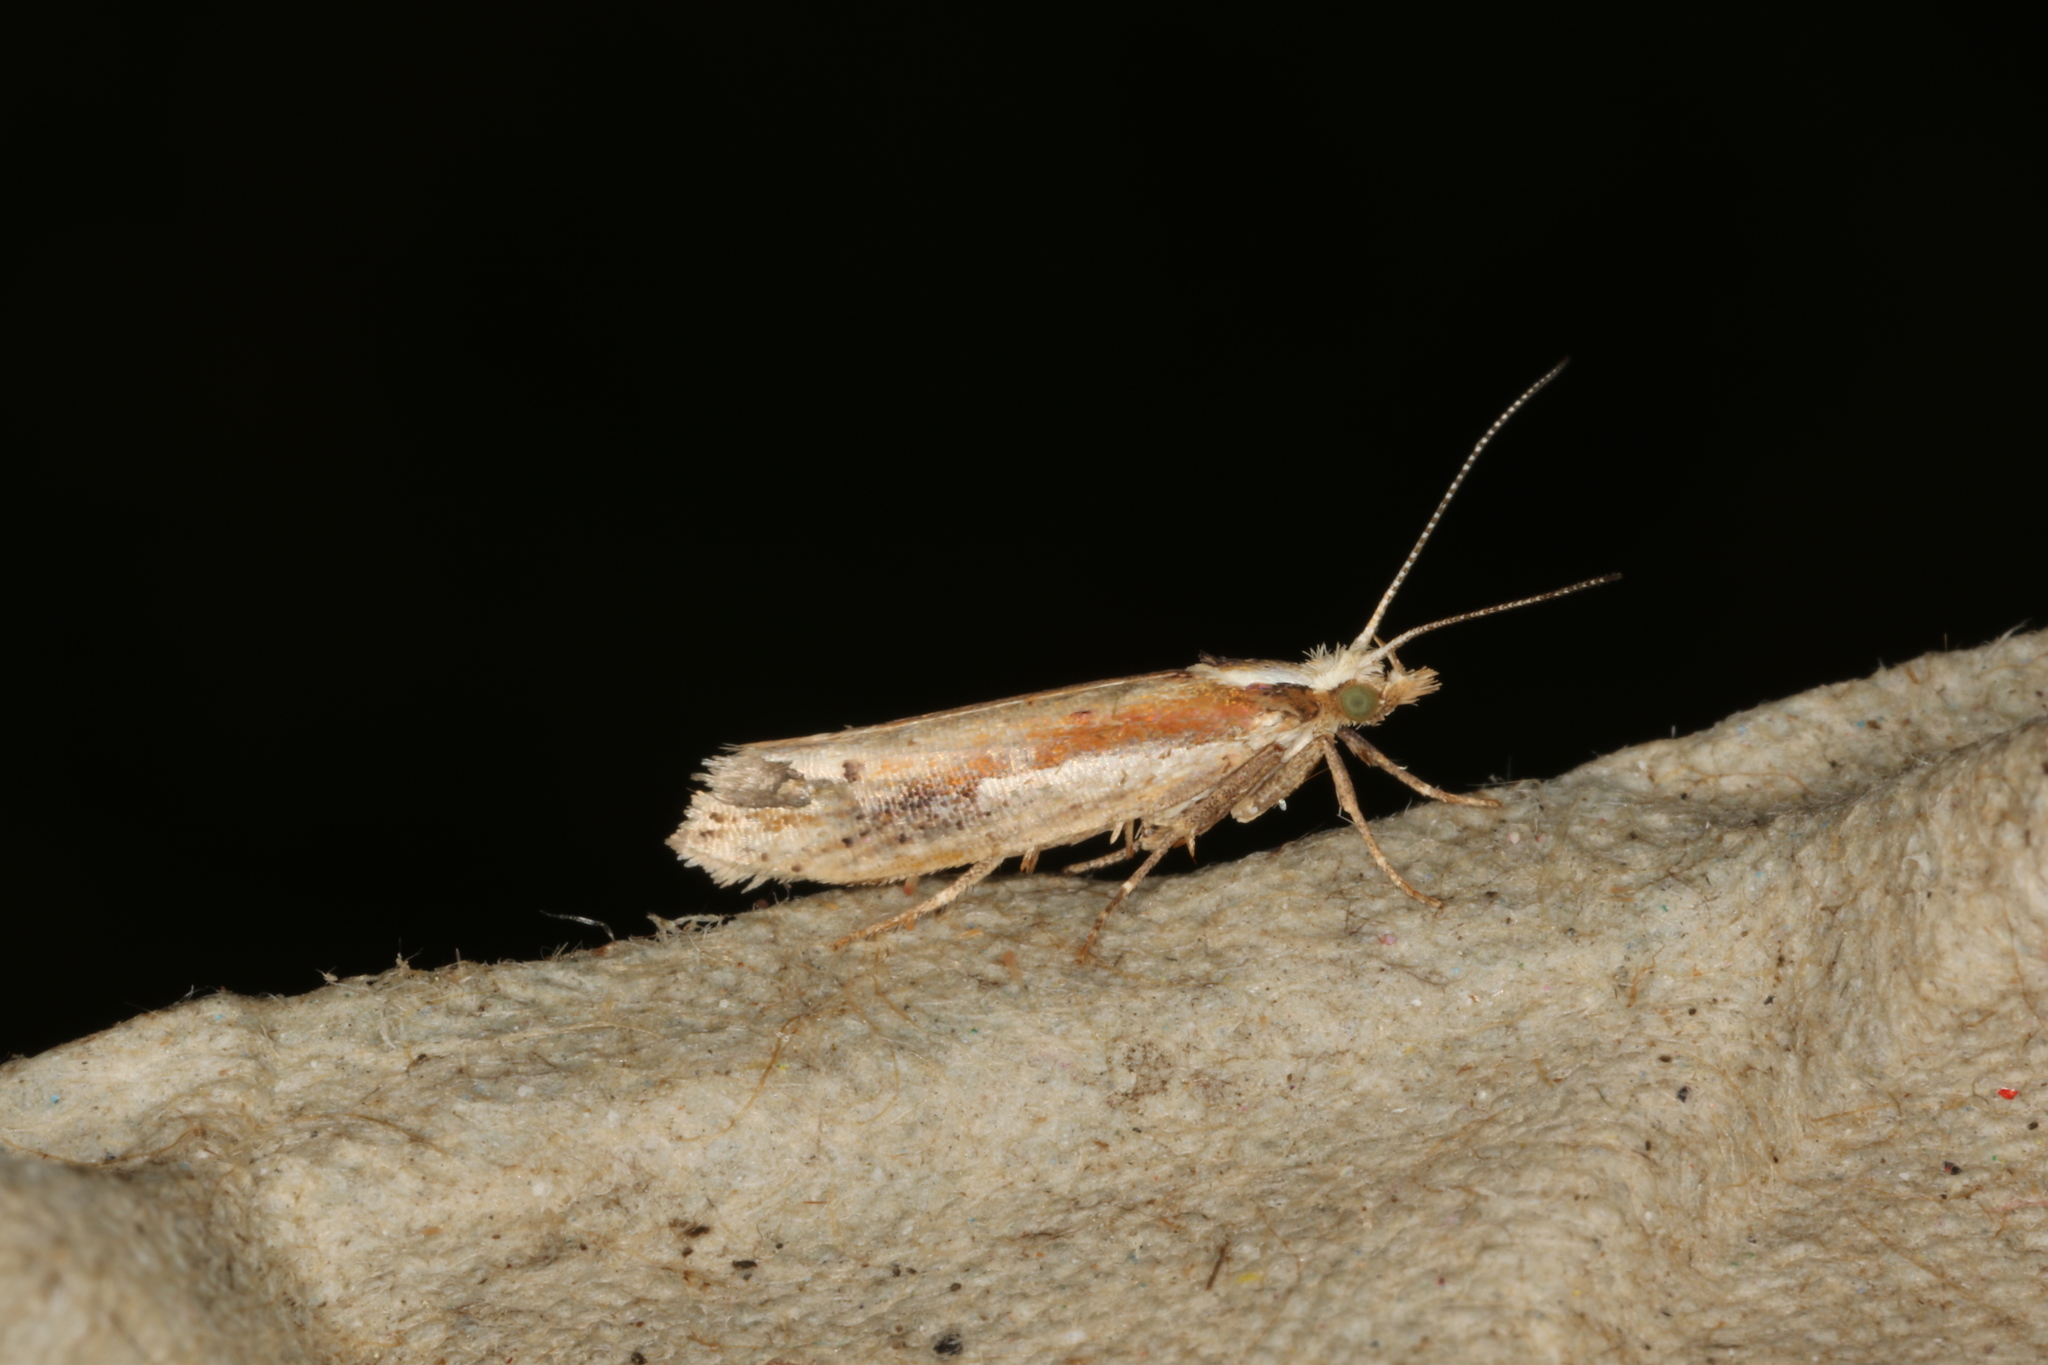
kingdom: Animalia
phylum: Arthropoda
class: Insecta
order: Lepidoptera
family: Ypsolophidae
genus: Ypsolopha
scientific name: Ypsolopha parenthesella
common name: White-shouldered smudge
